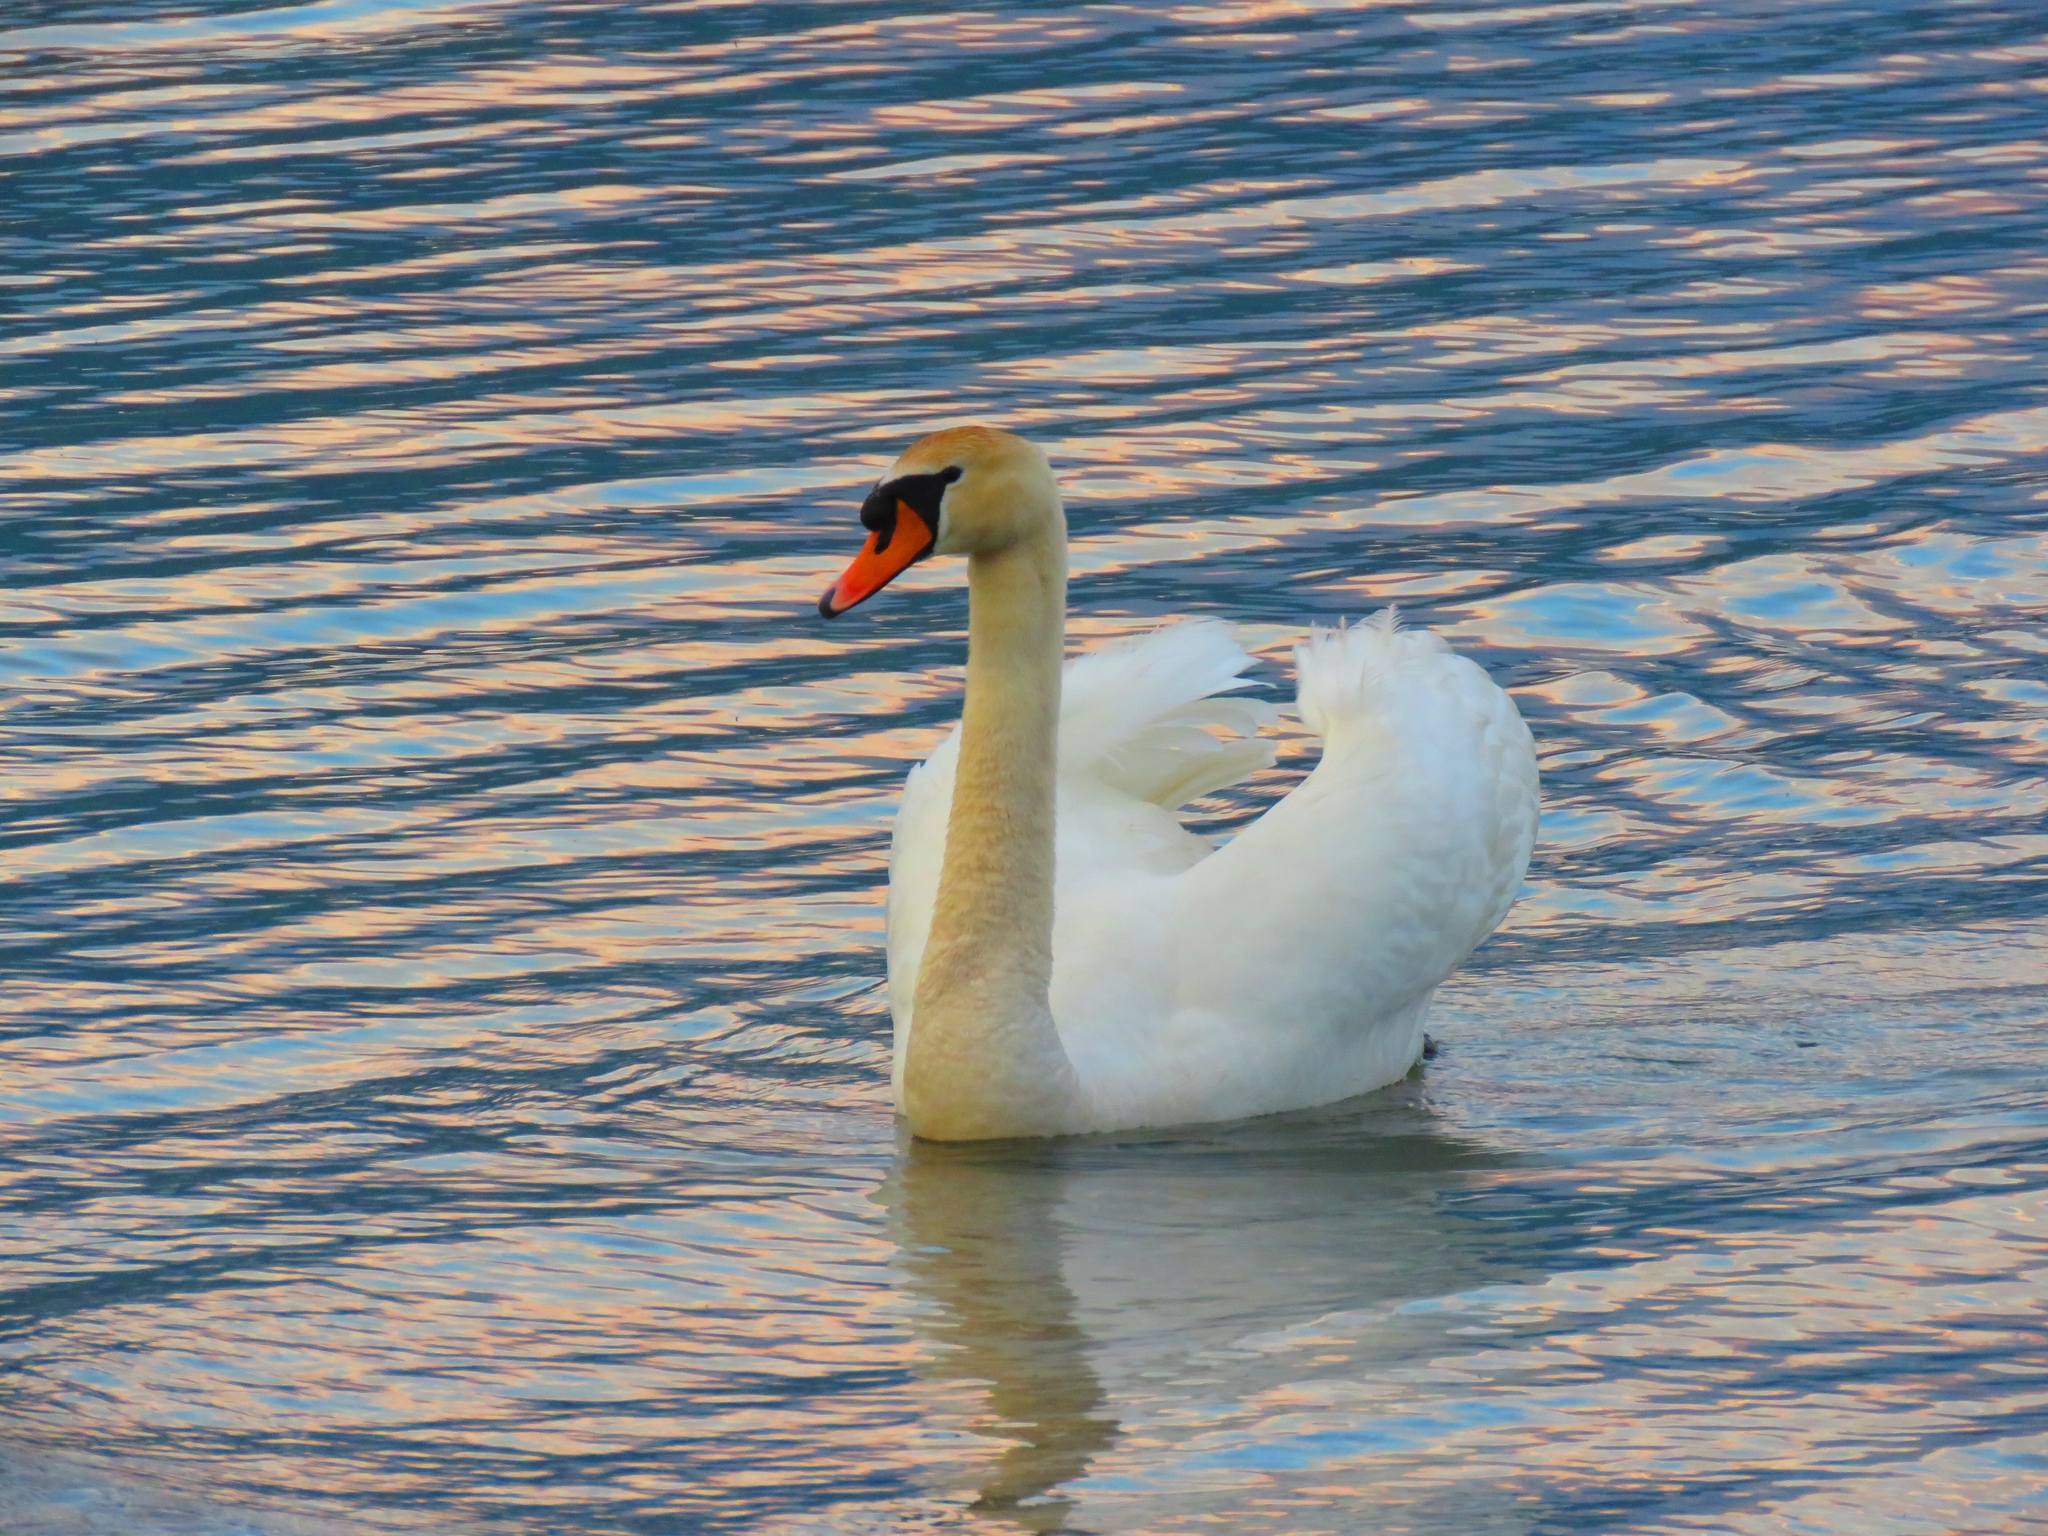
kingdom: Animalia
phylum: Chordata
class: Aves
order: Anseriformes
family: Anatidae
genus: Cygnus
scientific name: Cygnus olor
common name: Mute swan
